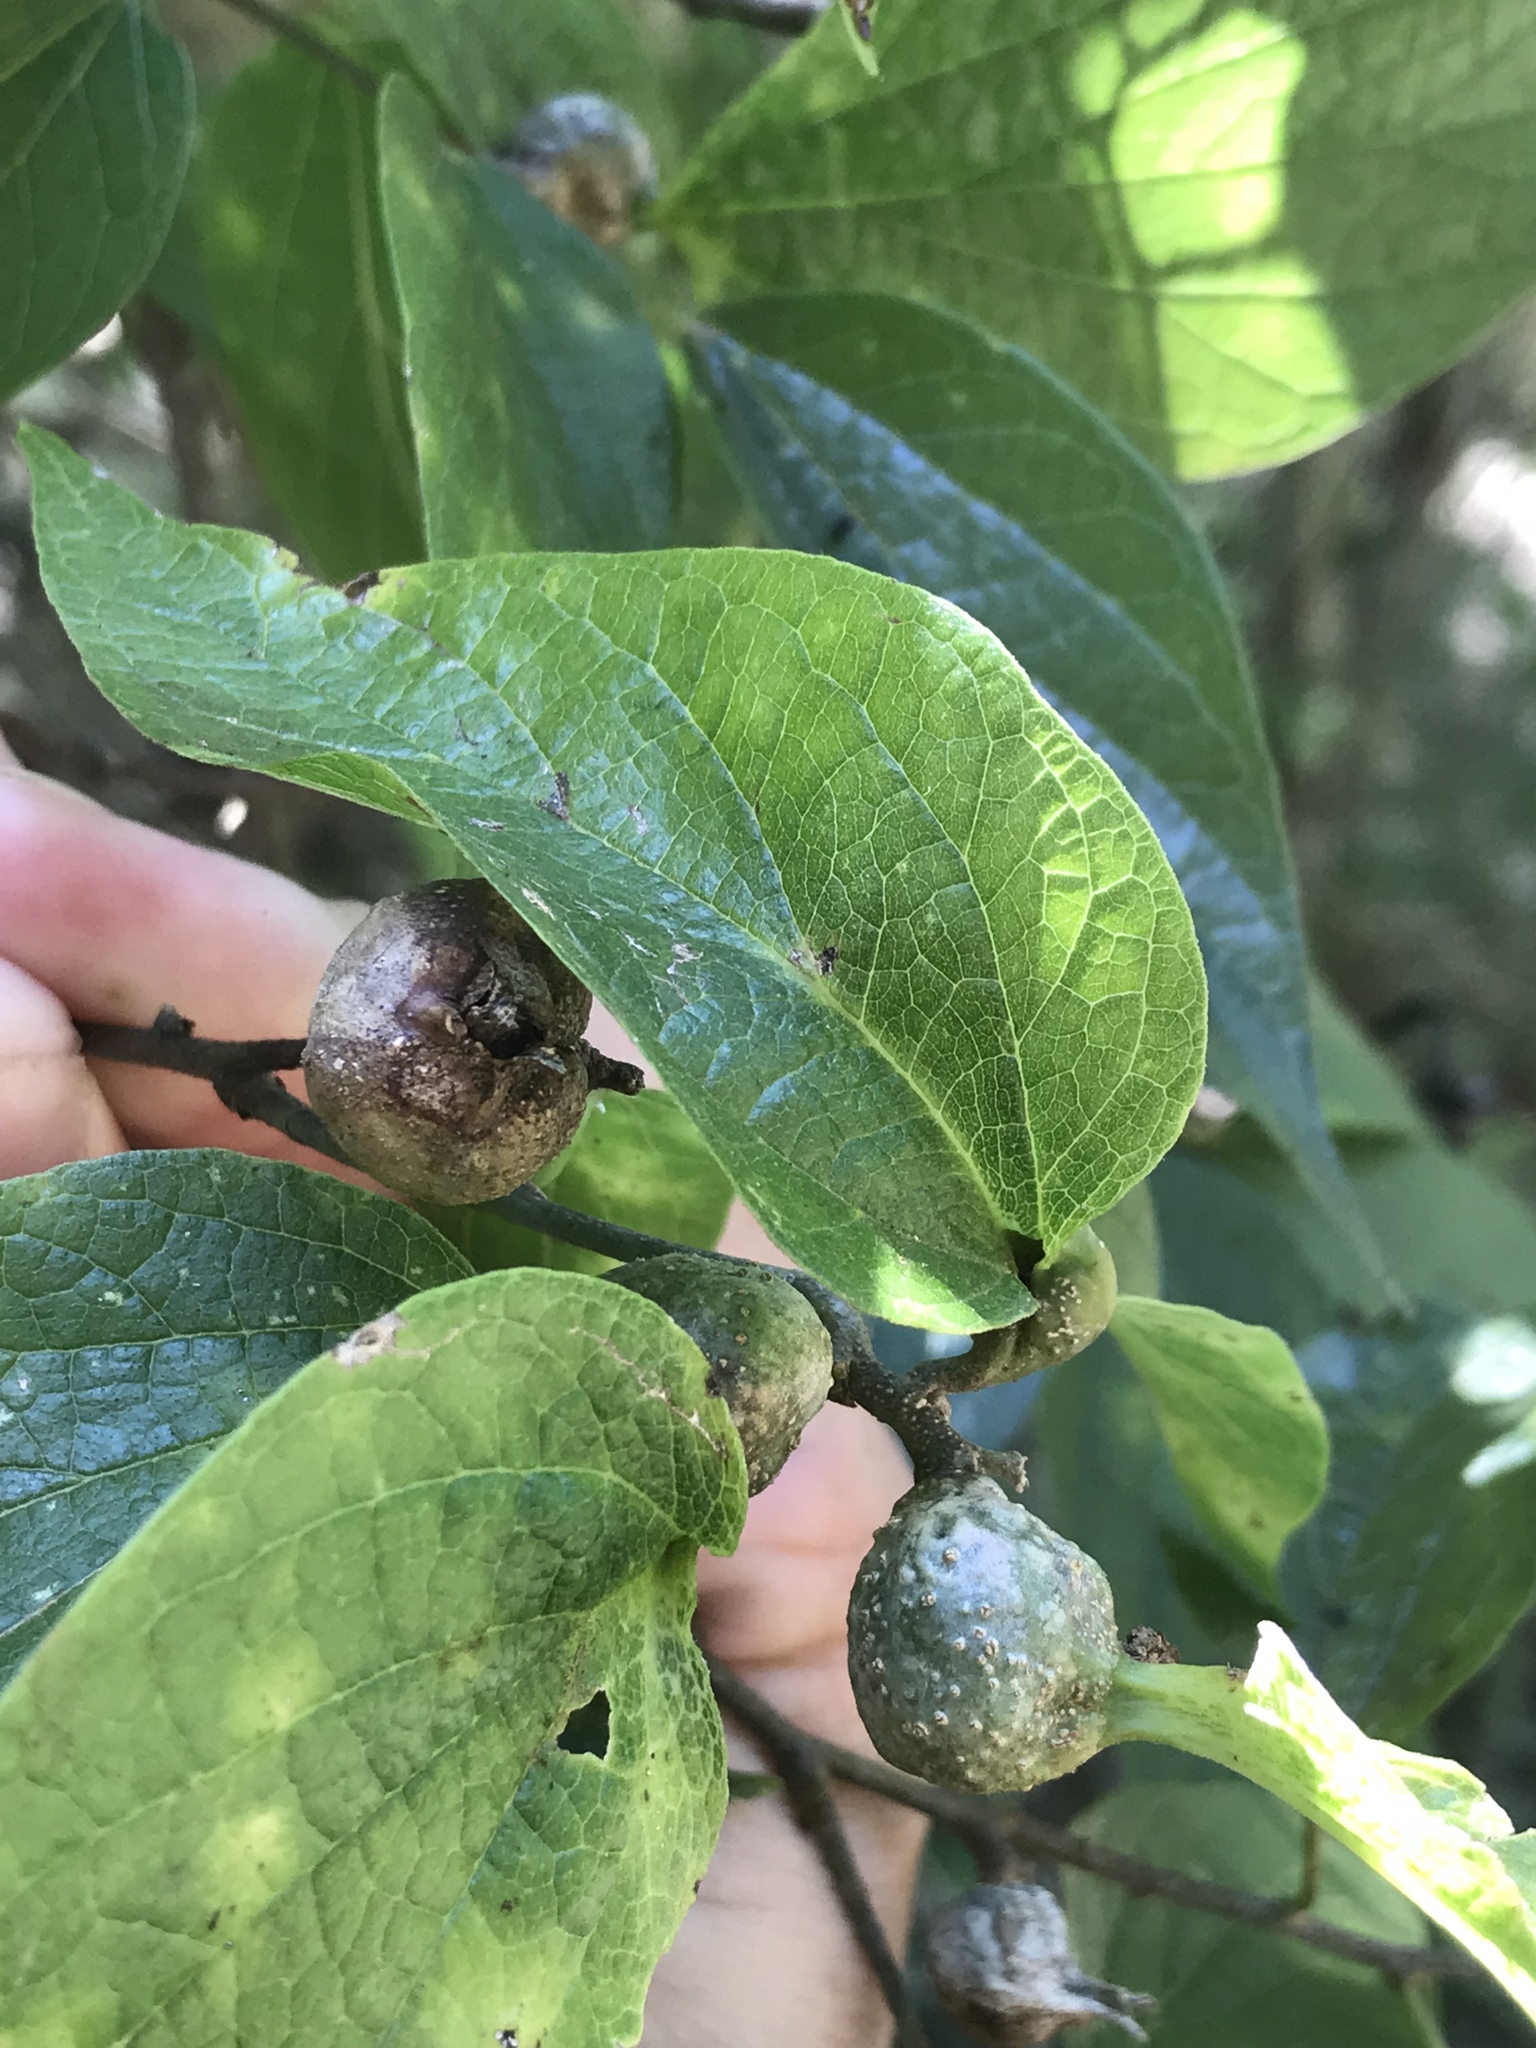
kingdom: Animalia
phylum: Arthropoda
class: Insecta
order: Hemiptera
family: Aphalaridae
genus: Pachypsylla
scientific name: Pachypsylla venusta
